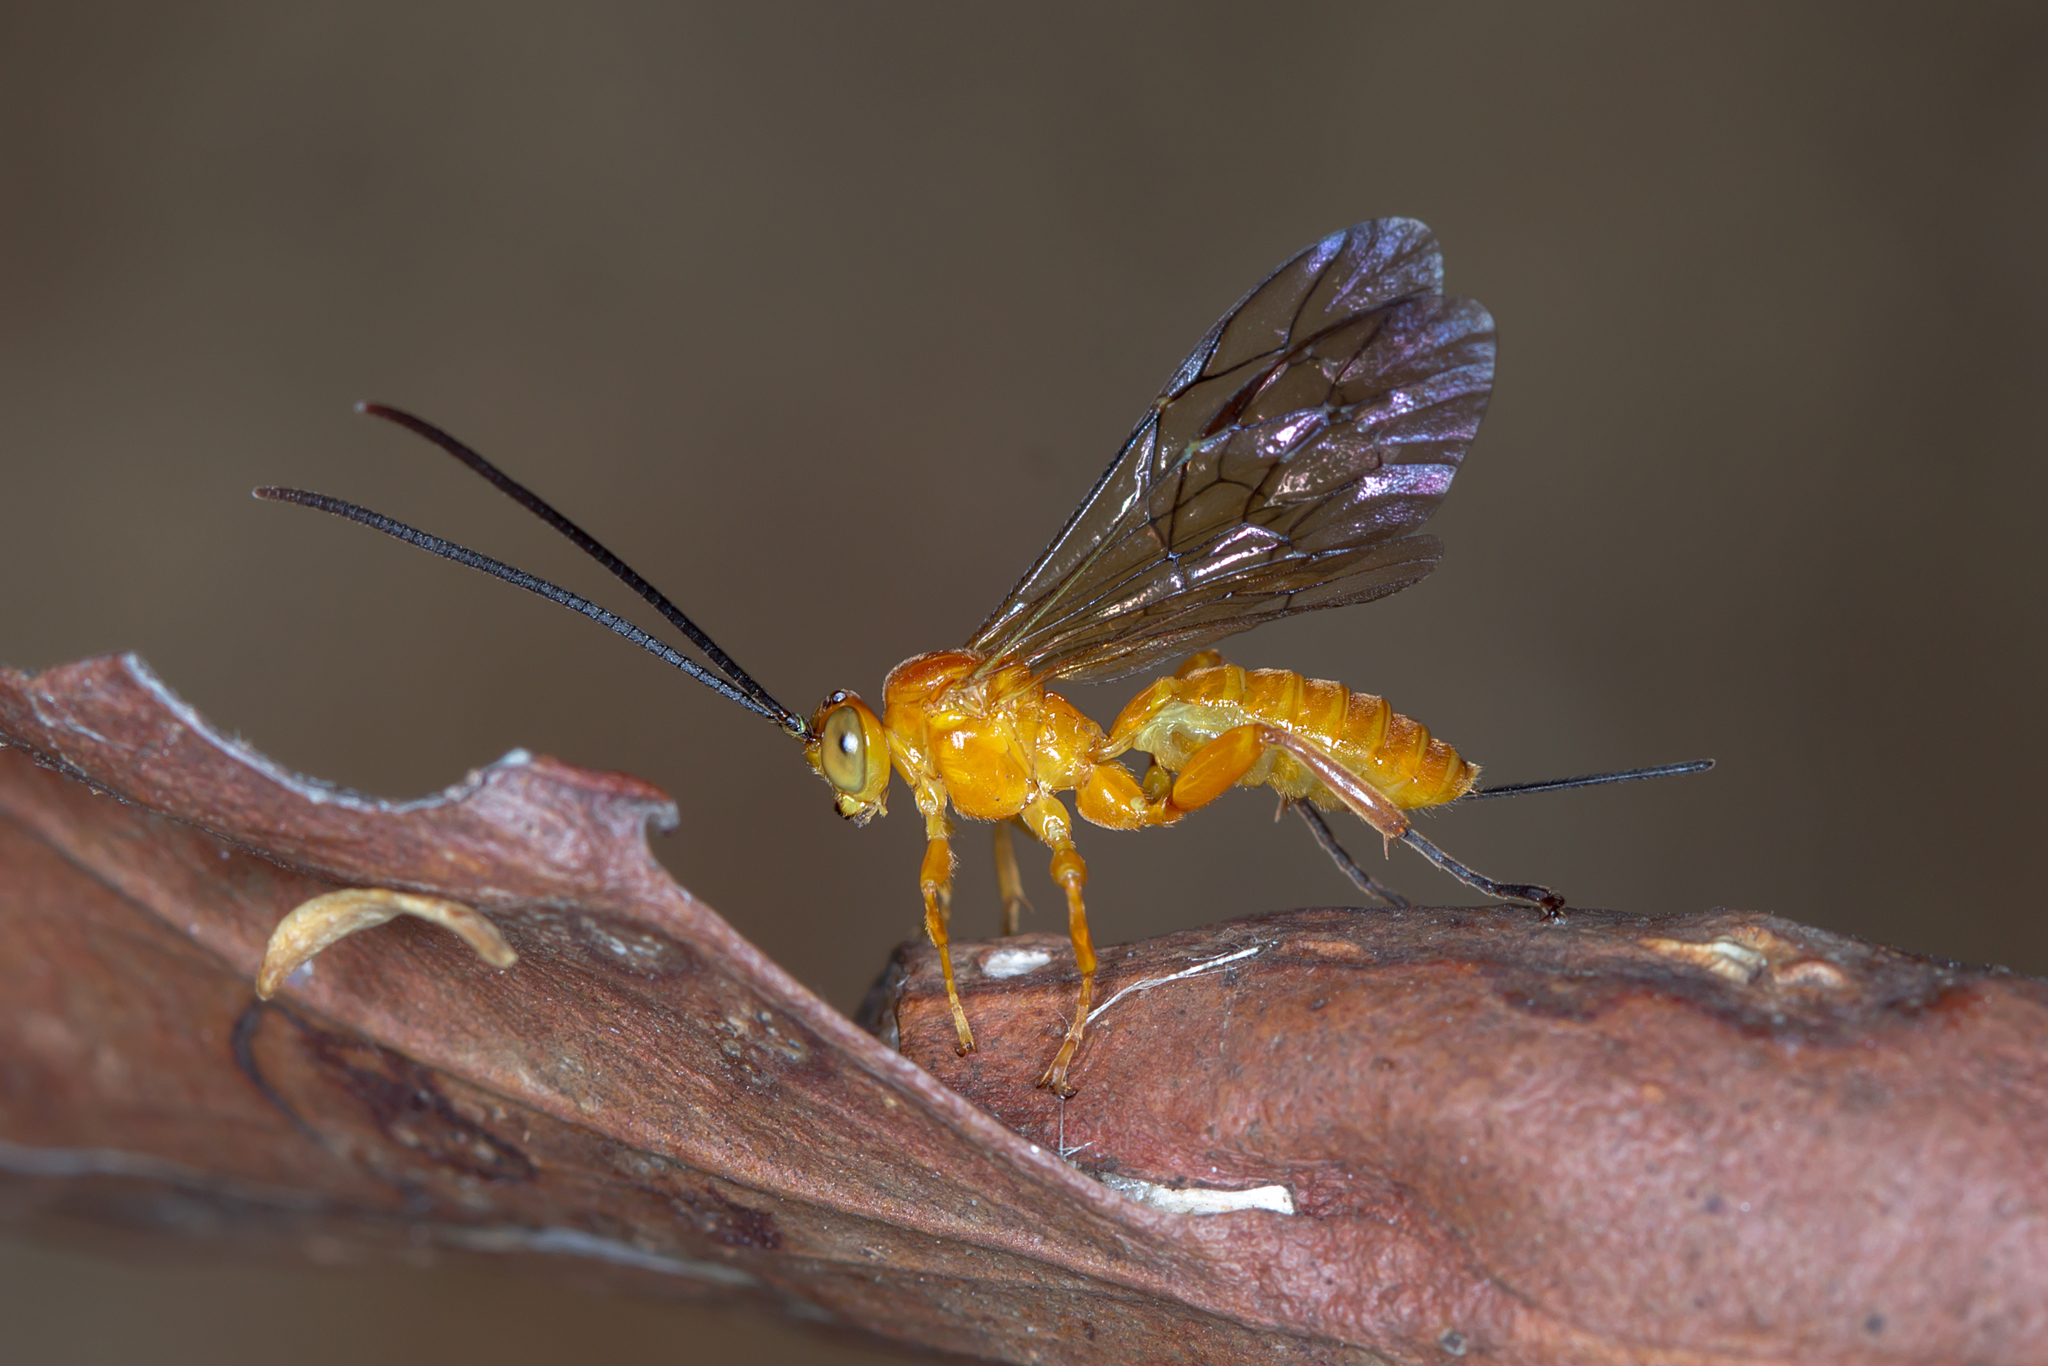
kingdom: Animalia
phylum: Arthropoda
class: Insecta
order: Hymenoptera
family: Ichneumonidae
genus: Theronia
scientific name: Theronia steindachneri
